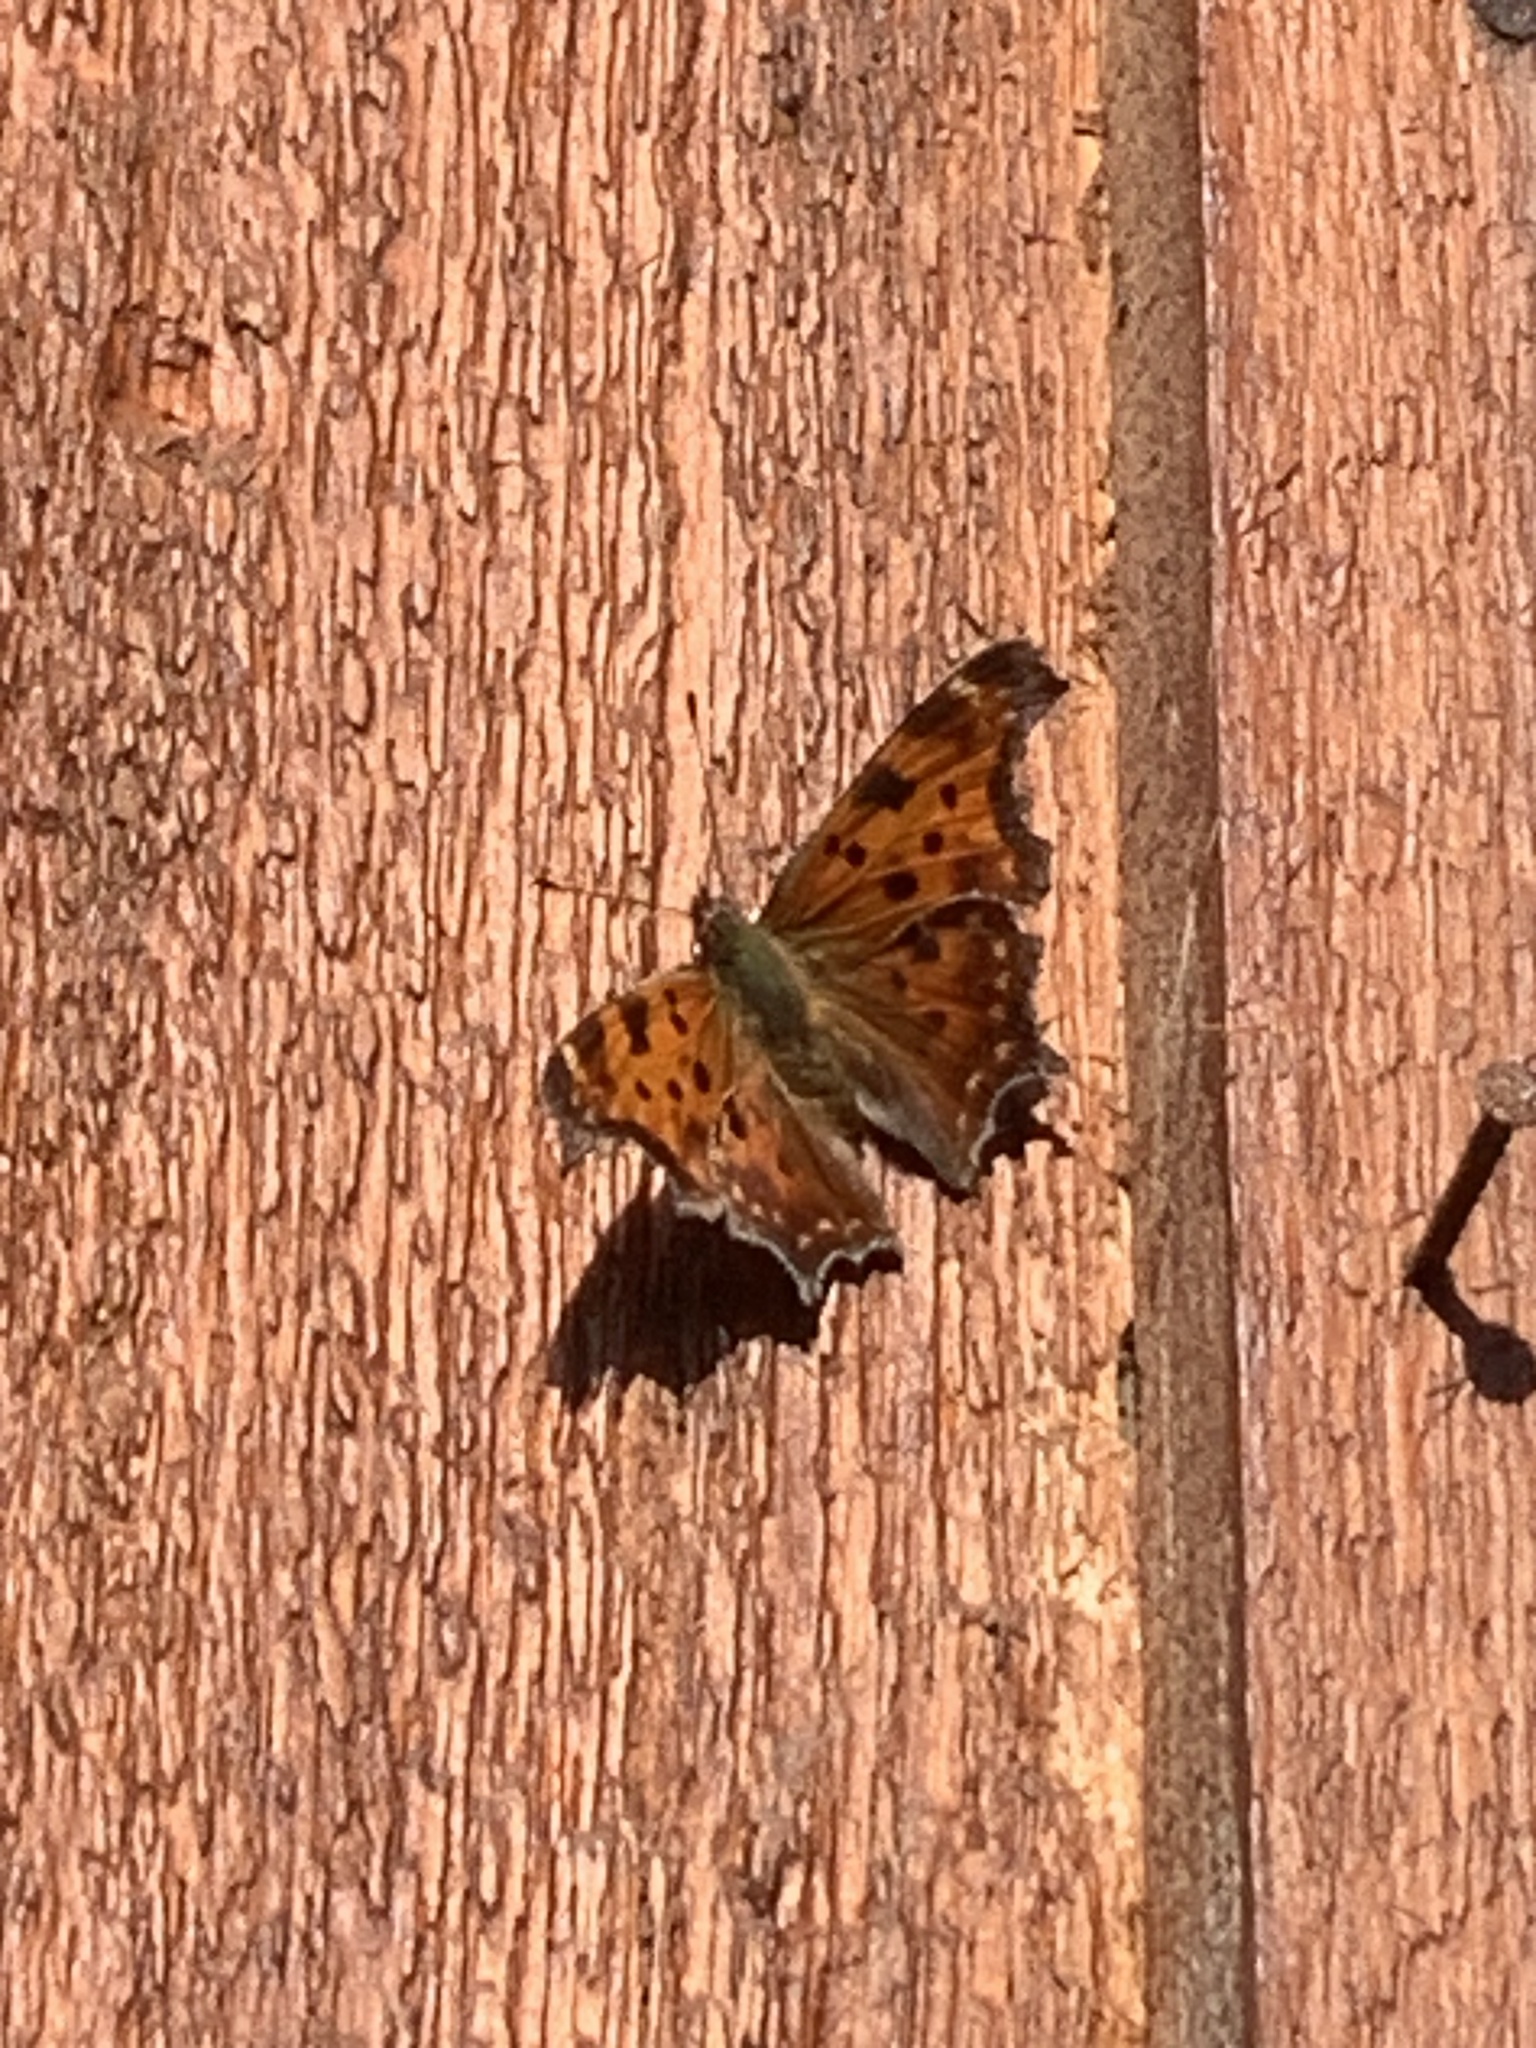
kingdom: Animalia
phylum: Arthropoda
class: Insecta
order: Lepidoptera
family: Nymphalidae
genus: Polygonia
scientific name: Polygonia comma
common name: Eastern comma
